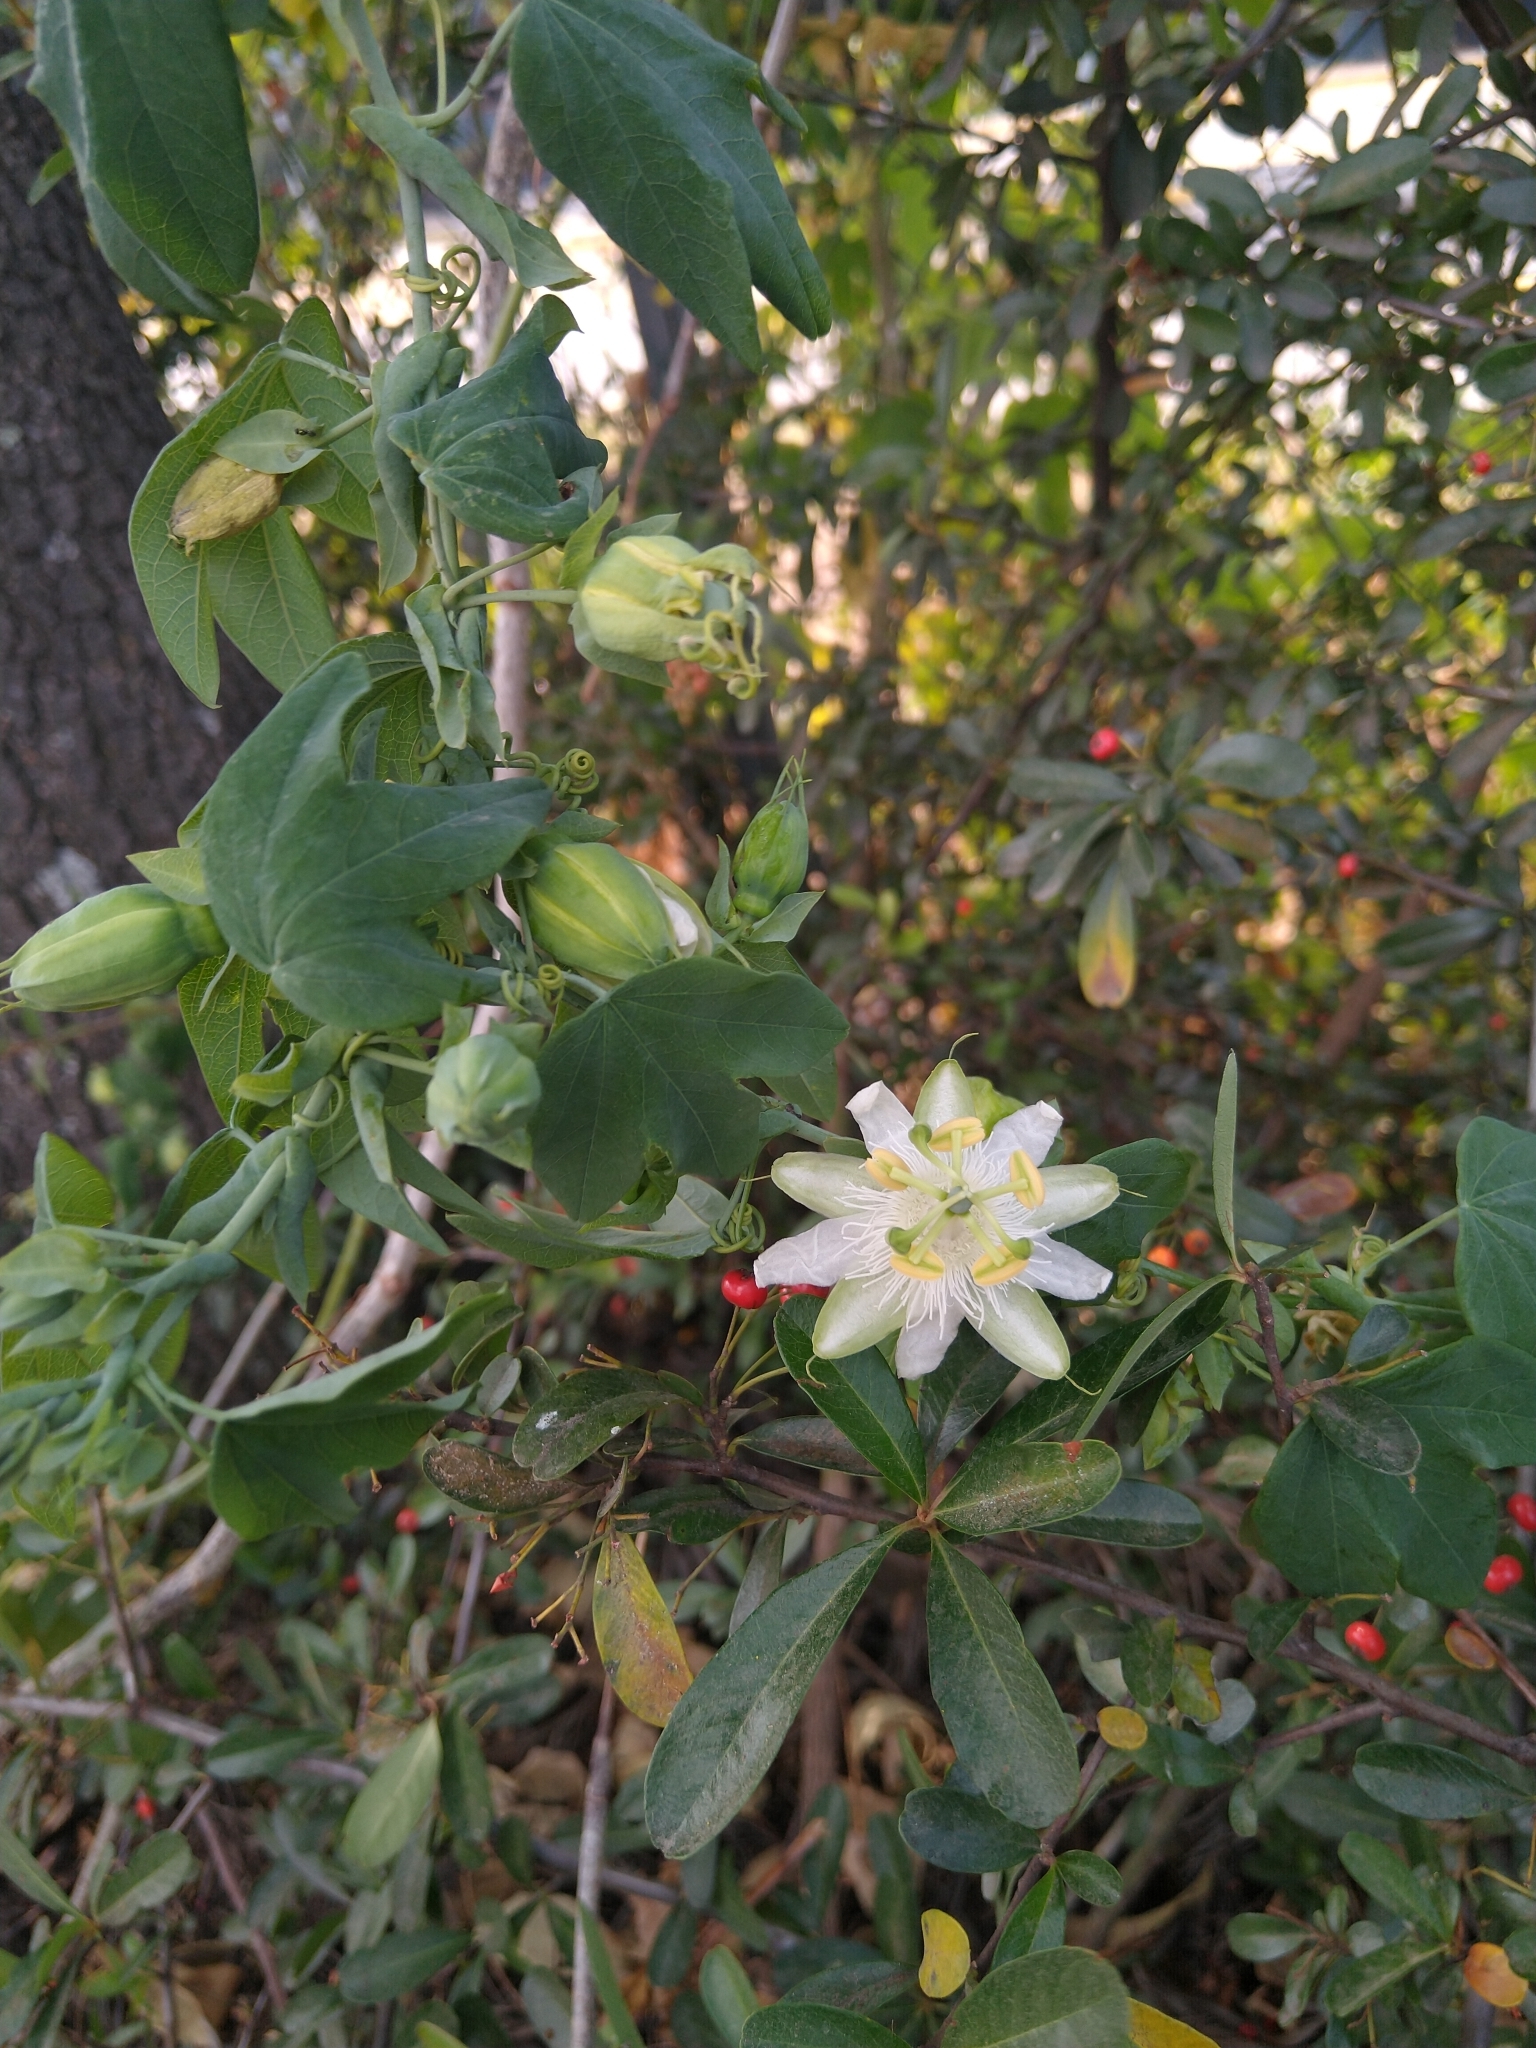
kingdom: Plantae
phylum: Tracheophyta
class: Magnoliopsida
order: Malpighiales
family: Passifloraceae
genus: Passiflora
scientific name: Passiflora subpeltata
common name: White passionflower
